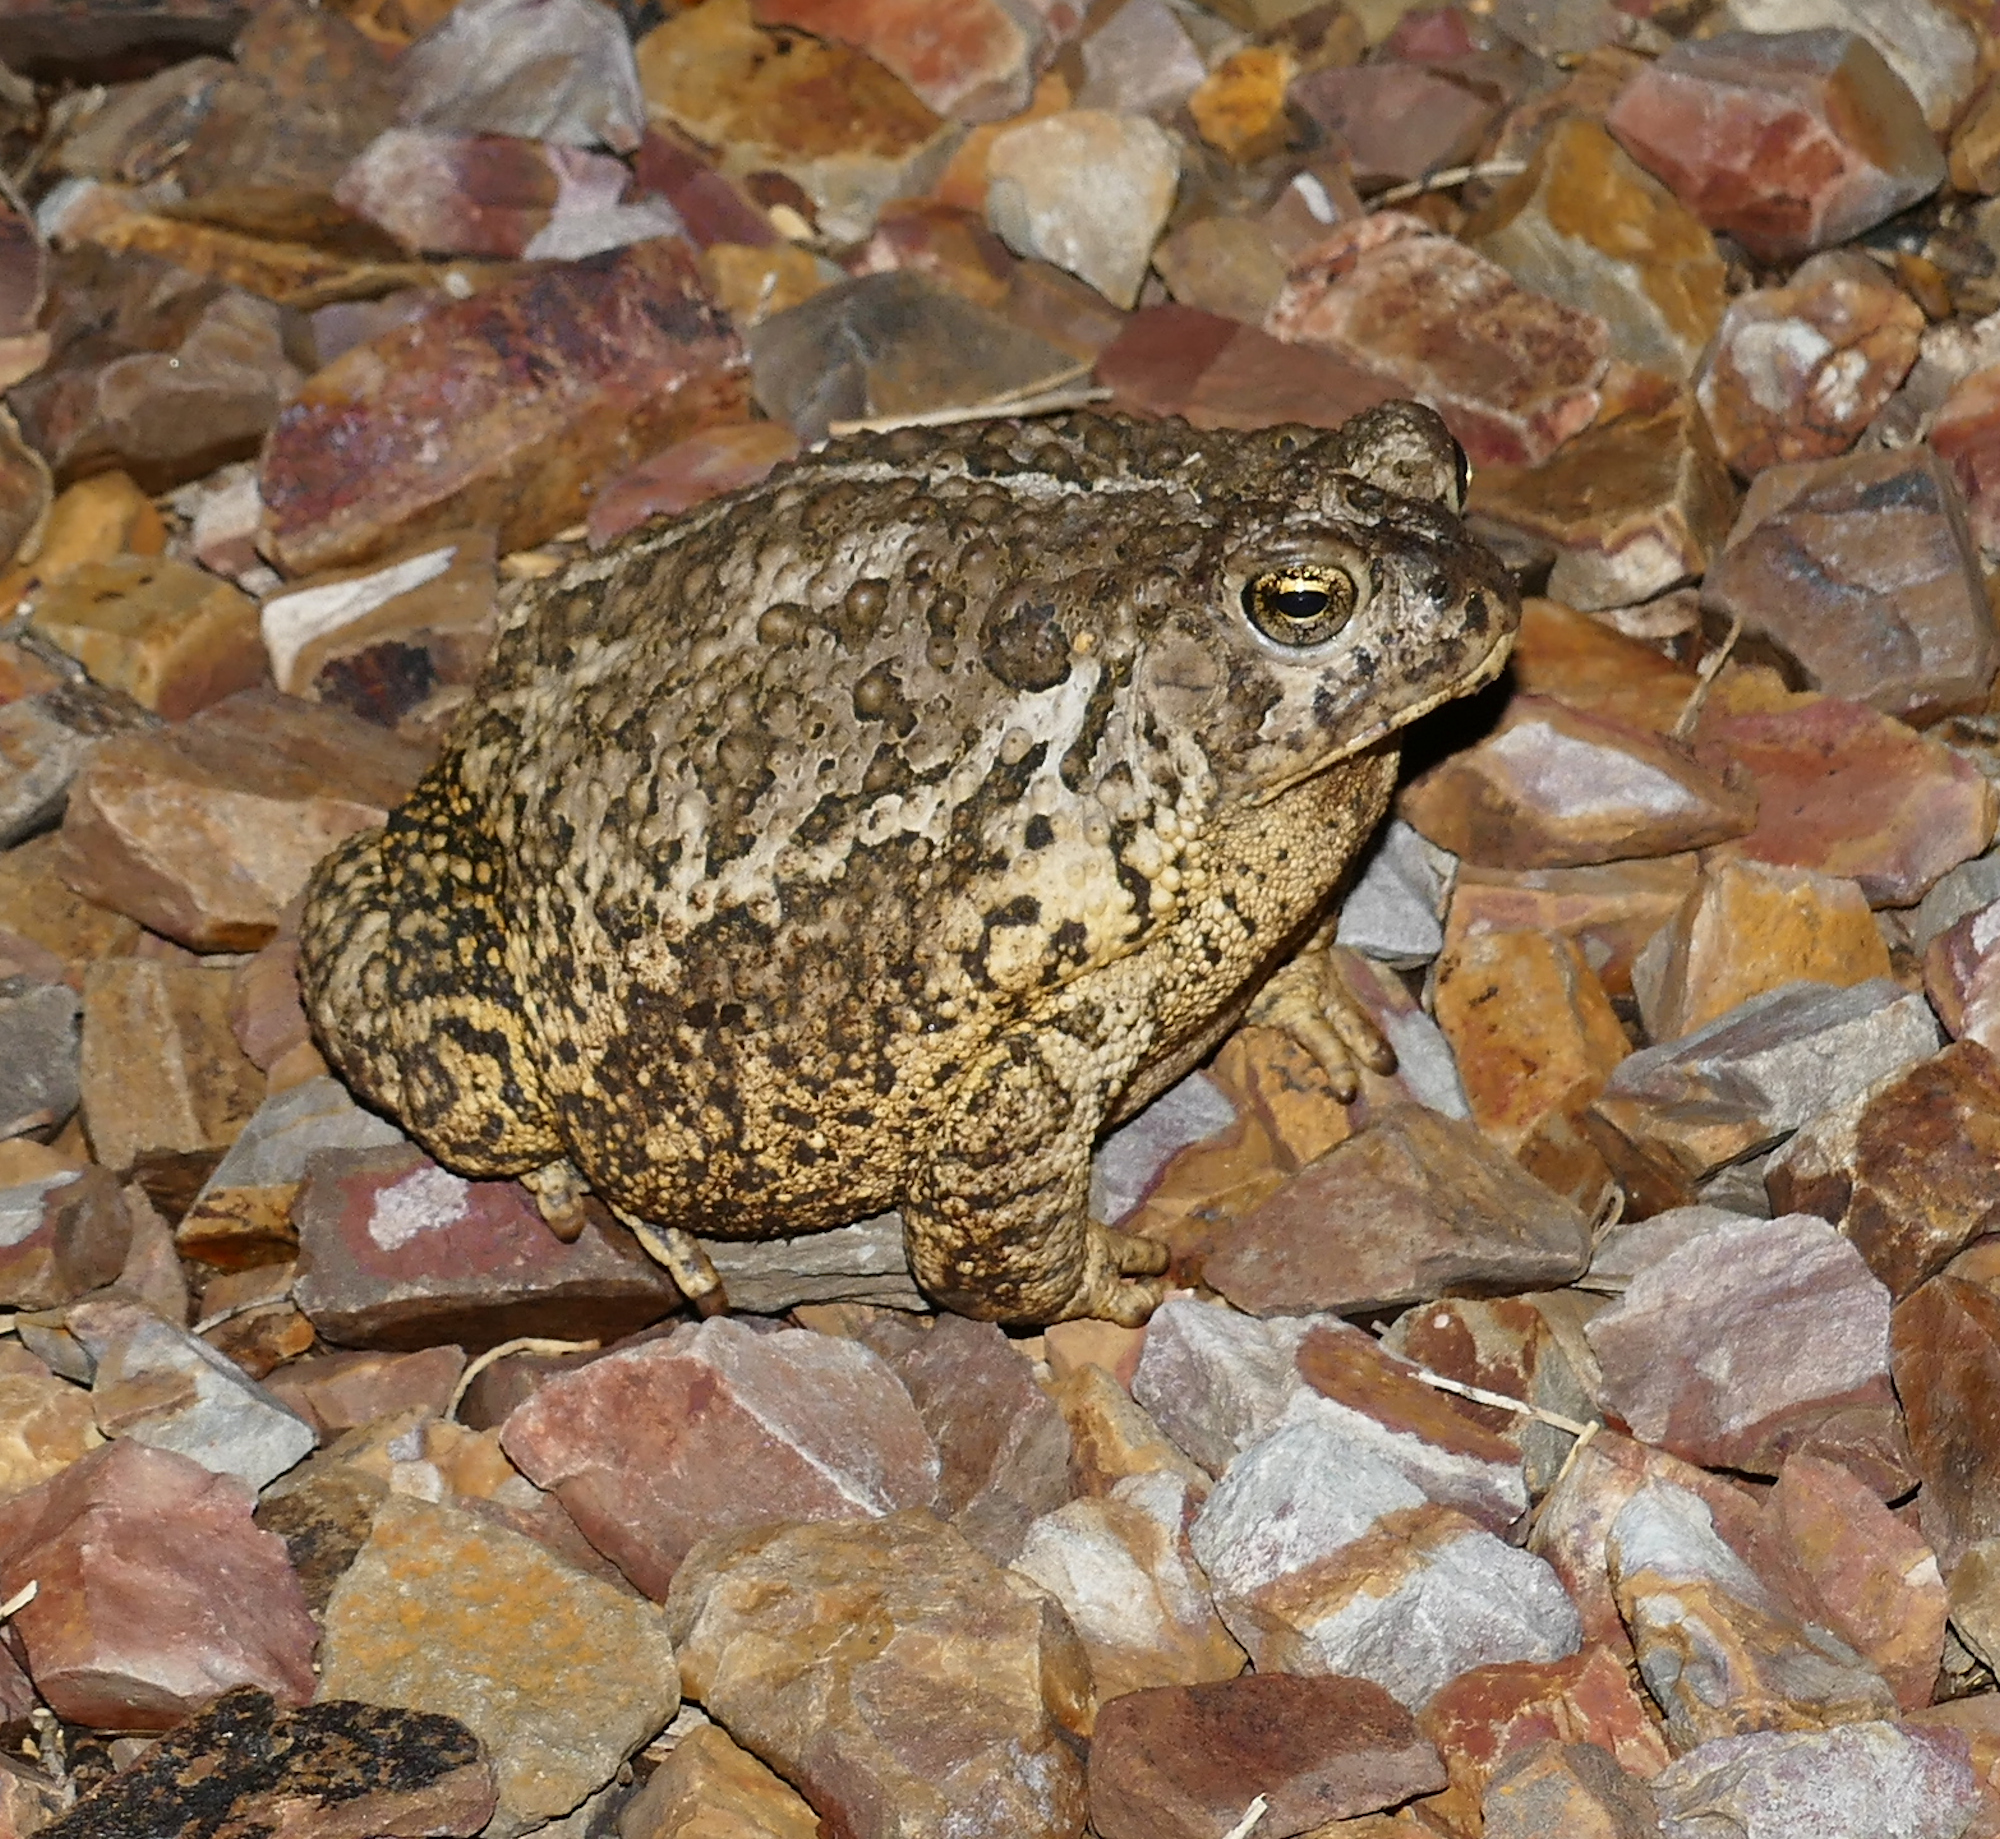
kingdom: Animalia
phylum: Chordata
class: Amphibia
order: Anura
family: Bufonidae
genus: Anaxyrus
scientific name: Anaxyrus woodhousii
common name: Woodhouse's toad
